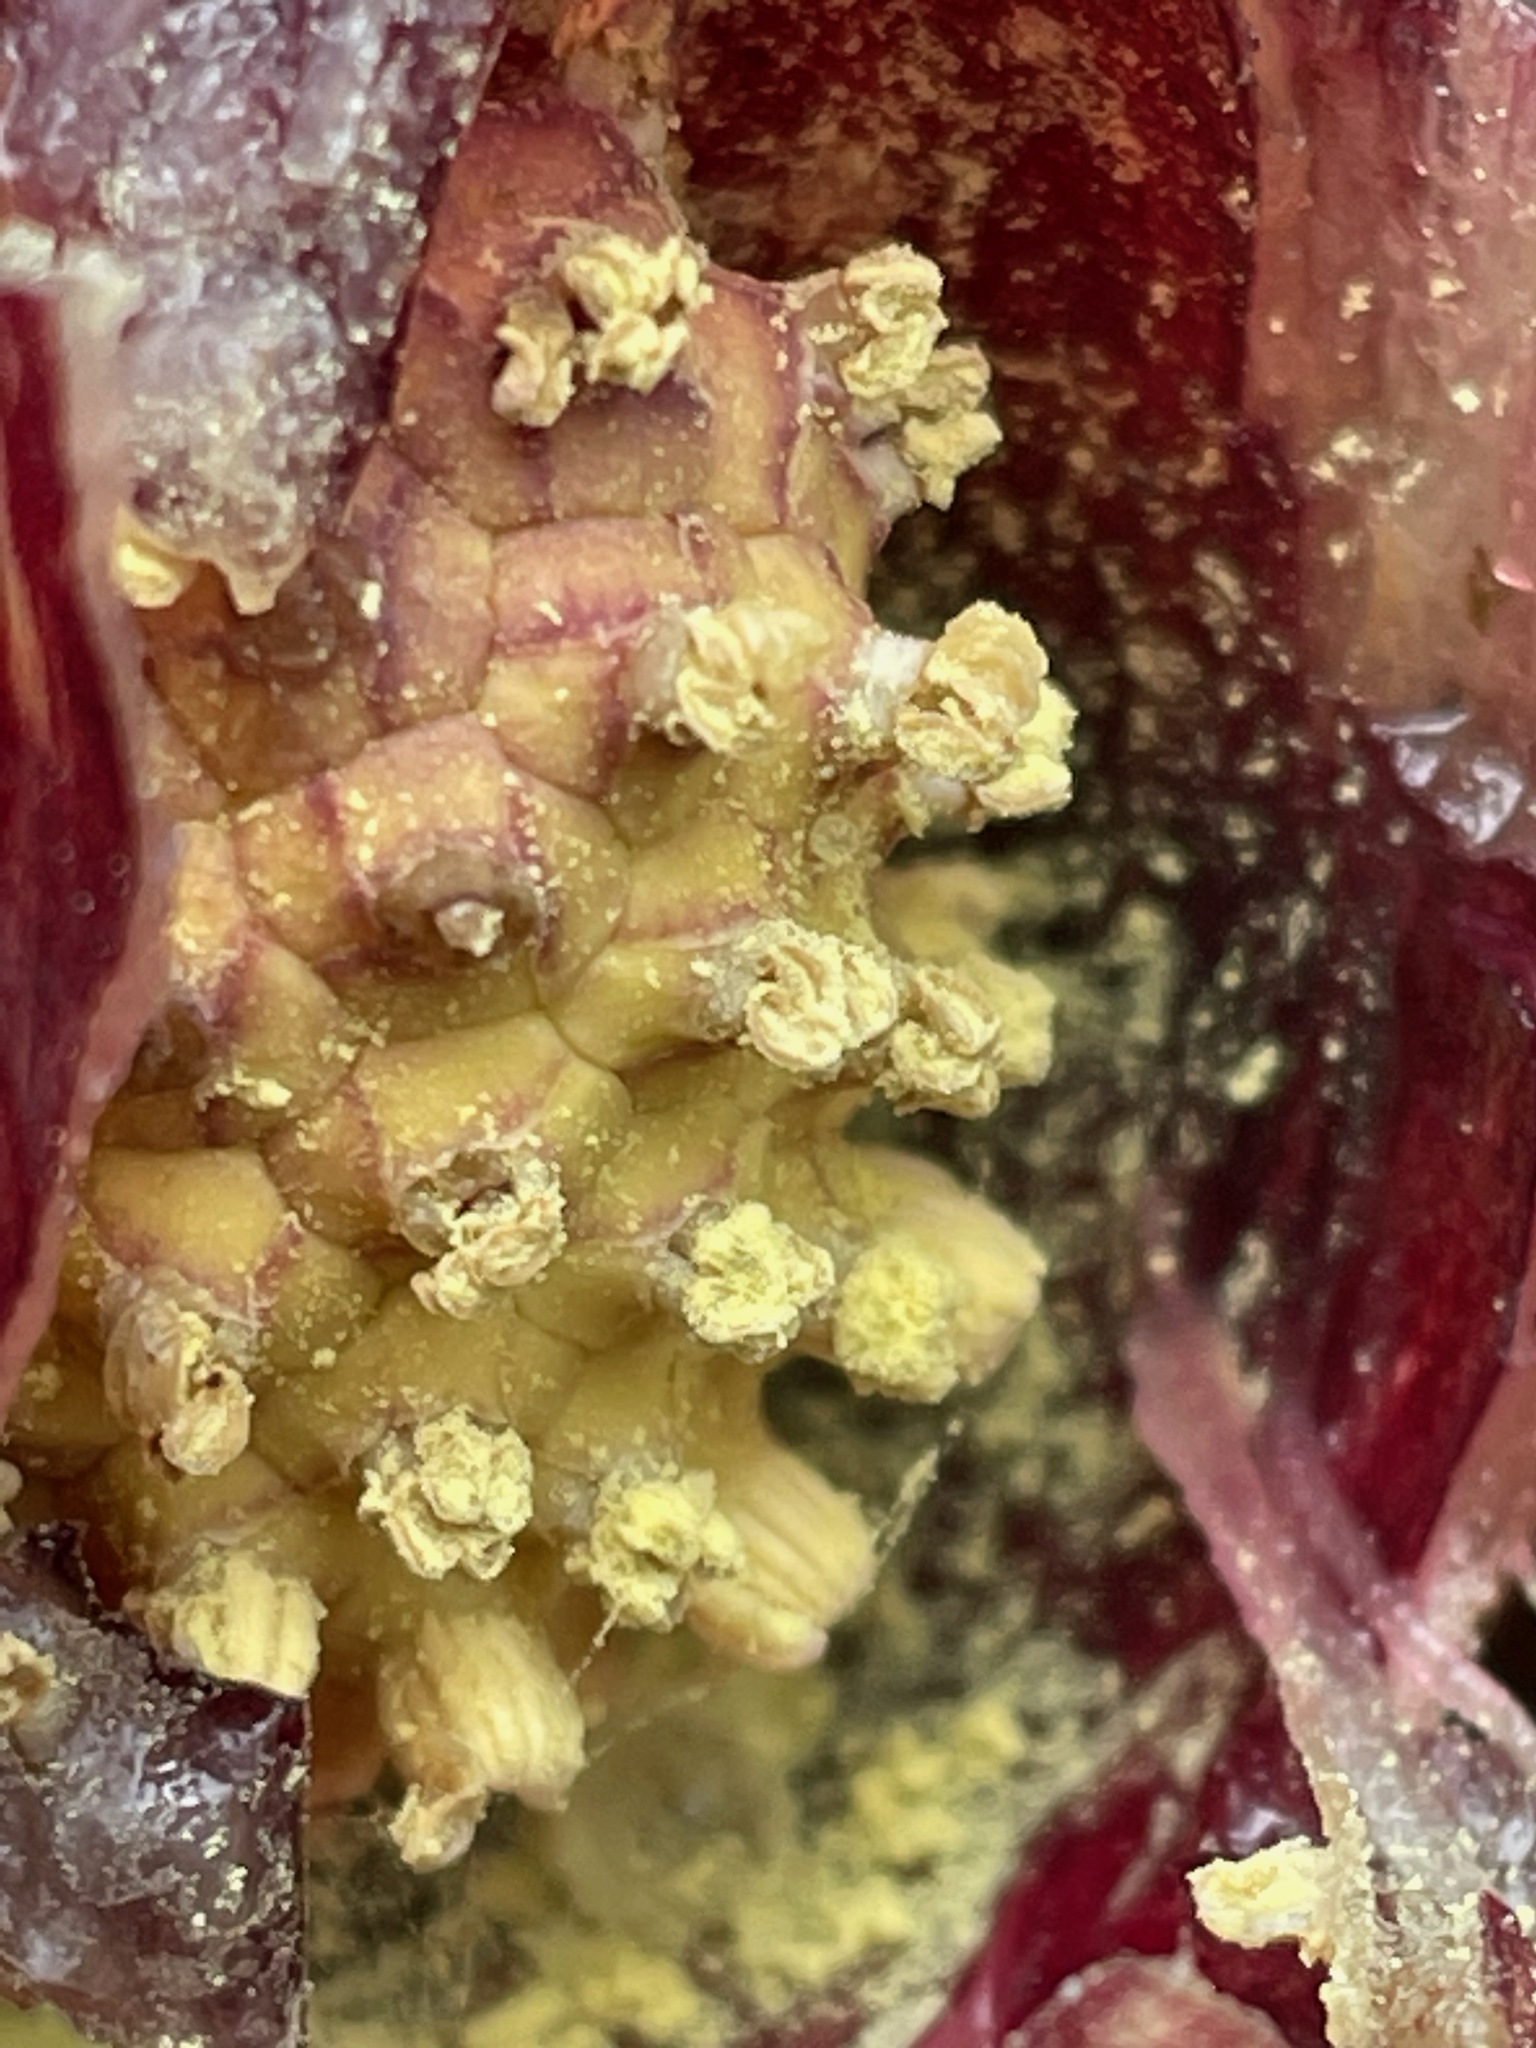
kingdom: Plantae
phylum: Tracheophyta
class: Liliopsida
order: Alismatales
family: Araceae
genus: Symplocarpus
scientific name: Symplocarpus foetidus
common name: Eastern skunk cabbage
